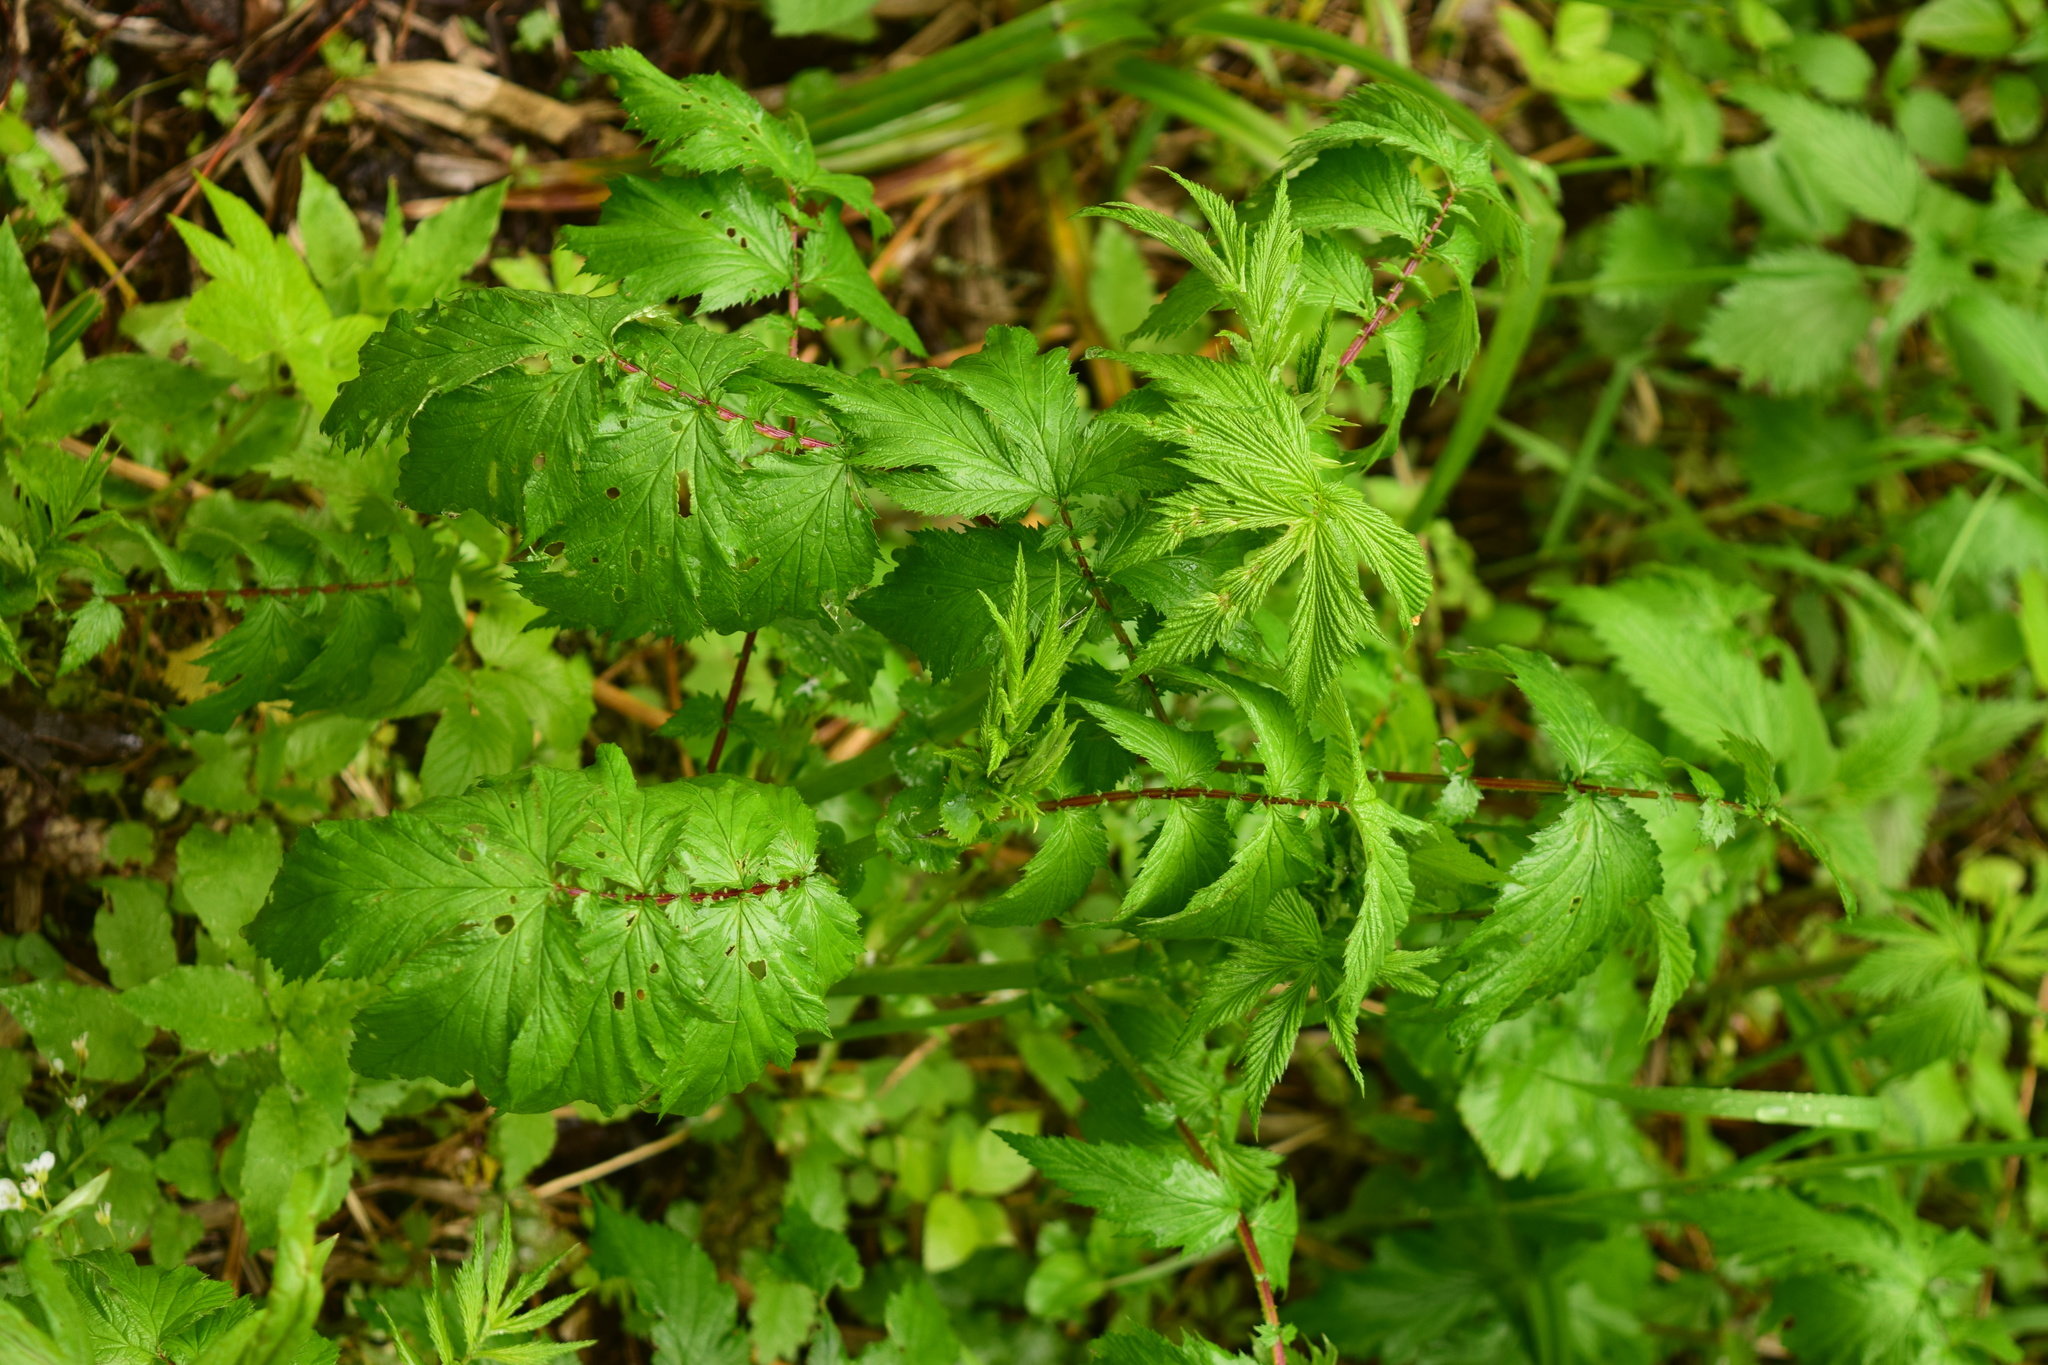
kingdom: Plantae
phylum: Tracheophyta
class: Magnoliopsida
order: Rosales
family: Rosaceae
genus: Filipendula
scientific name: Filipendula ulmaria
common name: Meadowsweet
